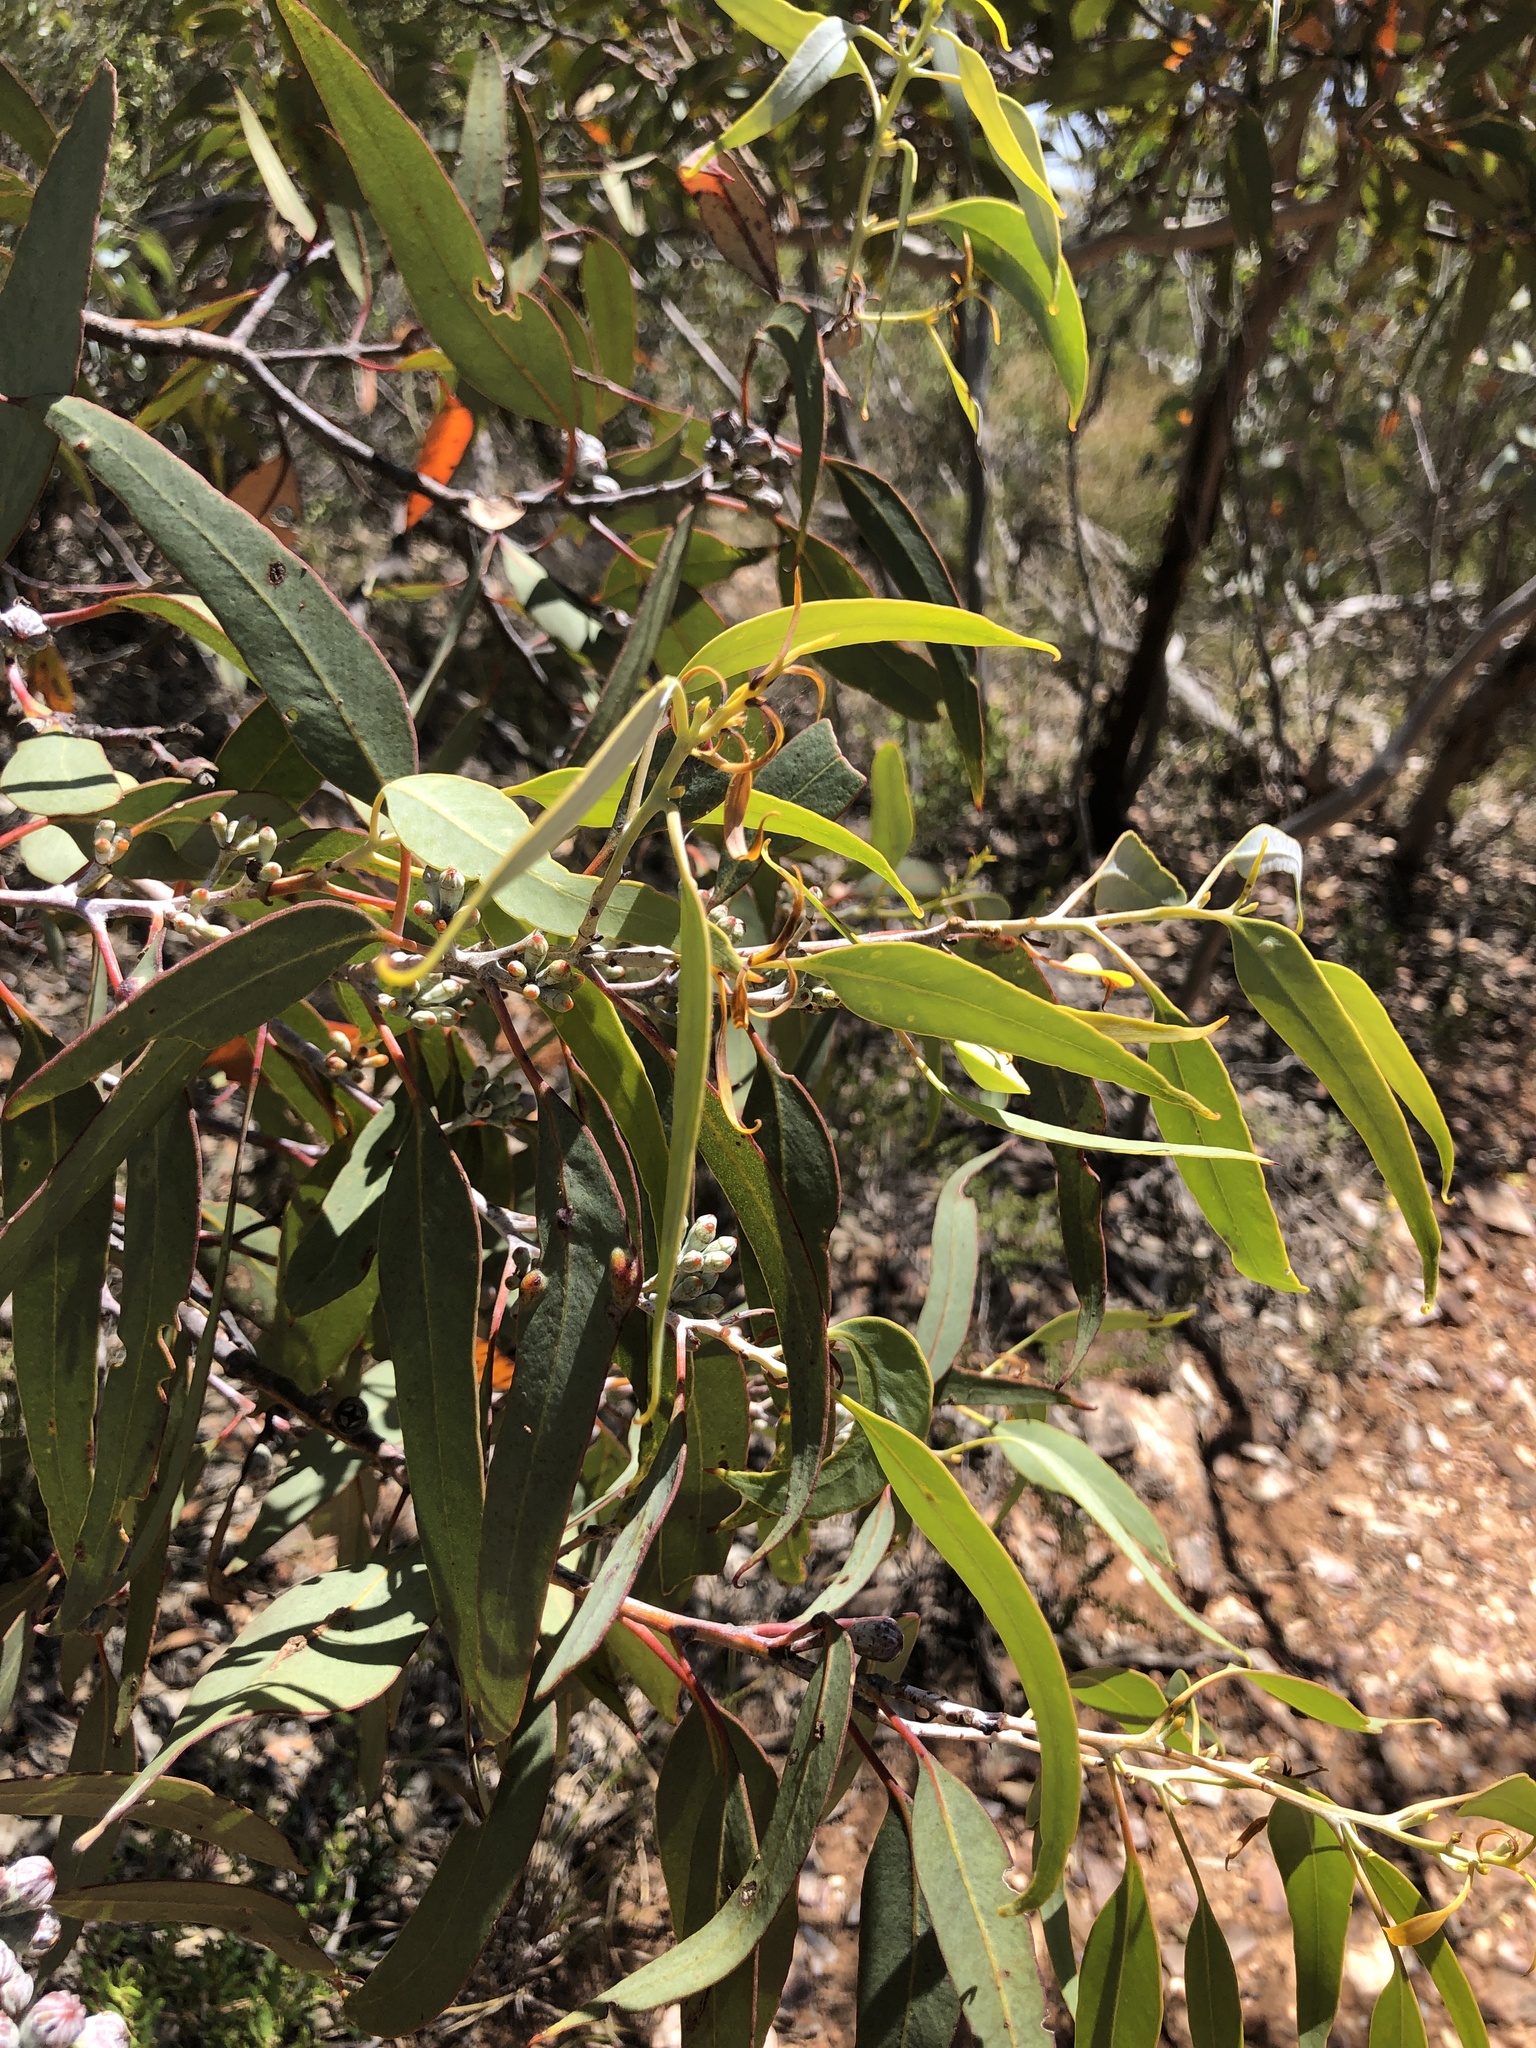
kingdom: Plantae
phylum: Tracheophyta
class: Magnoliopsida
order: Myrtales
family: Myrtaceae
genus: Eucalyptus
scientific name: Eucalyptus cretata
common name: Darke peak mallee
